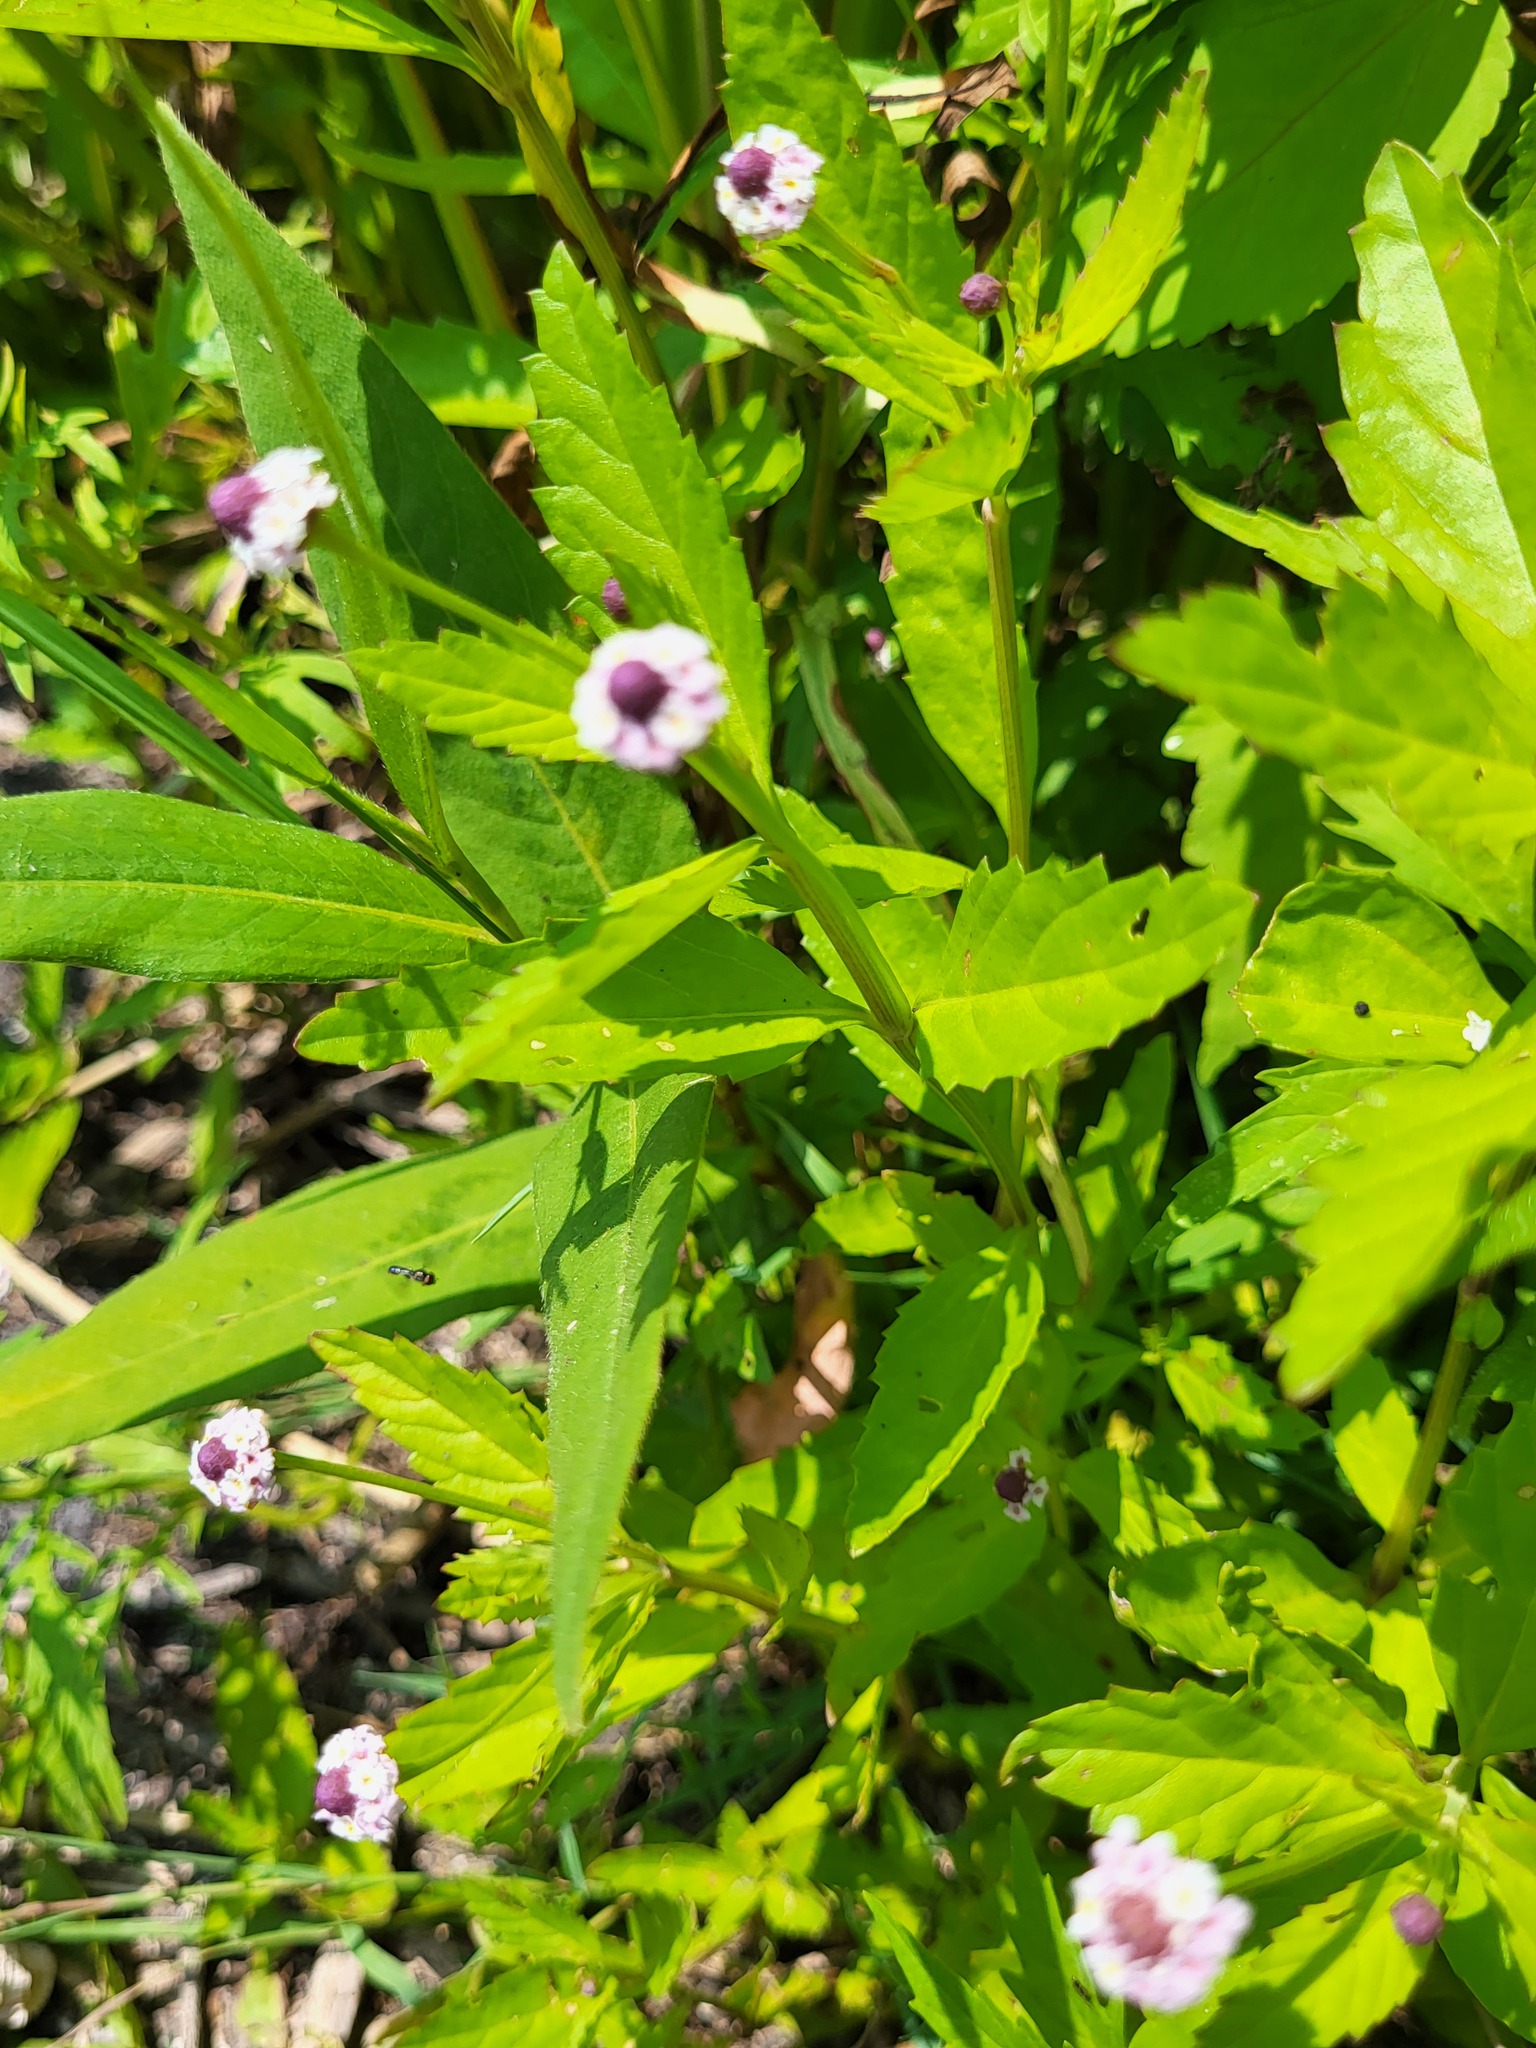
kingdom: Plantae
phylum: Tracheophyta
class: Magnoliopsida
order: Lamiales
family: Verbenaceae
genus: Phyla
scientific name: Phyla lanceolata
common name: Northern fogfruit
